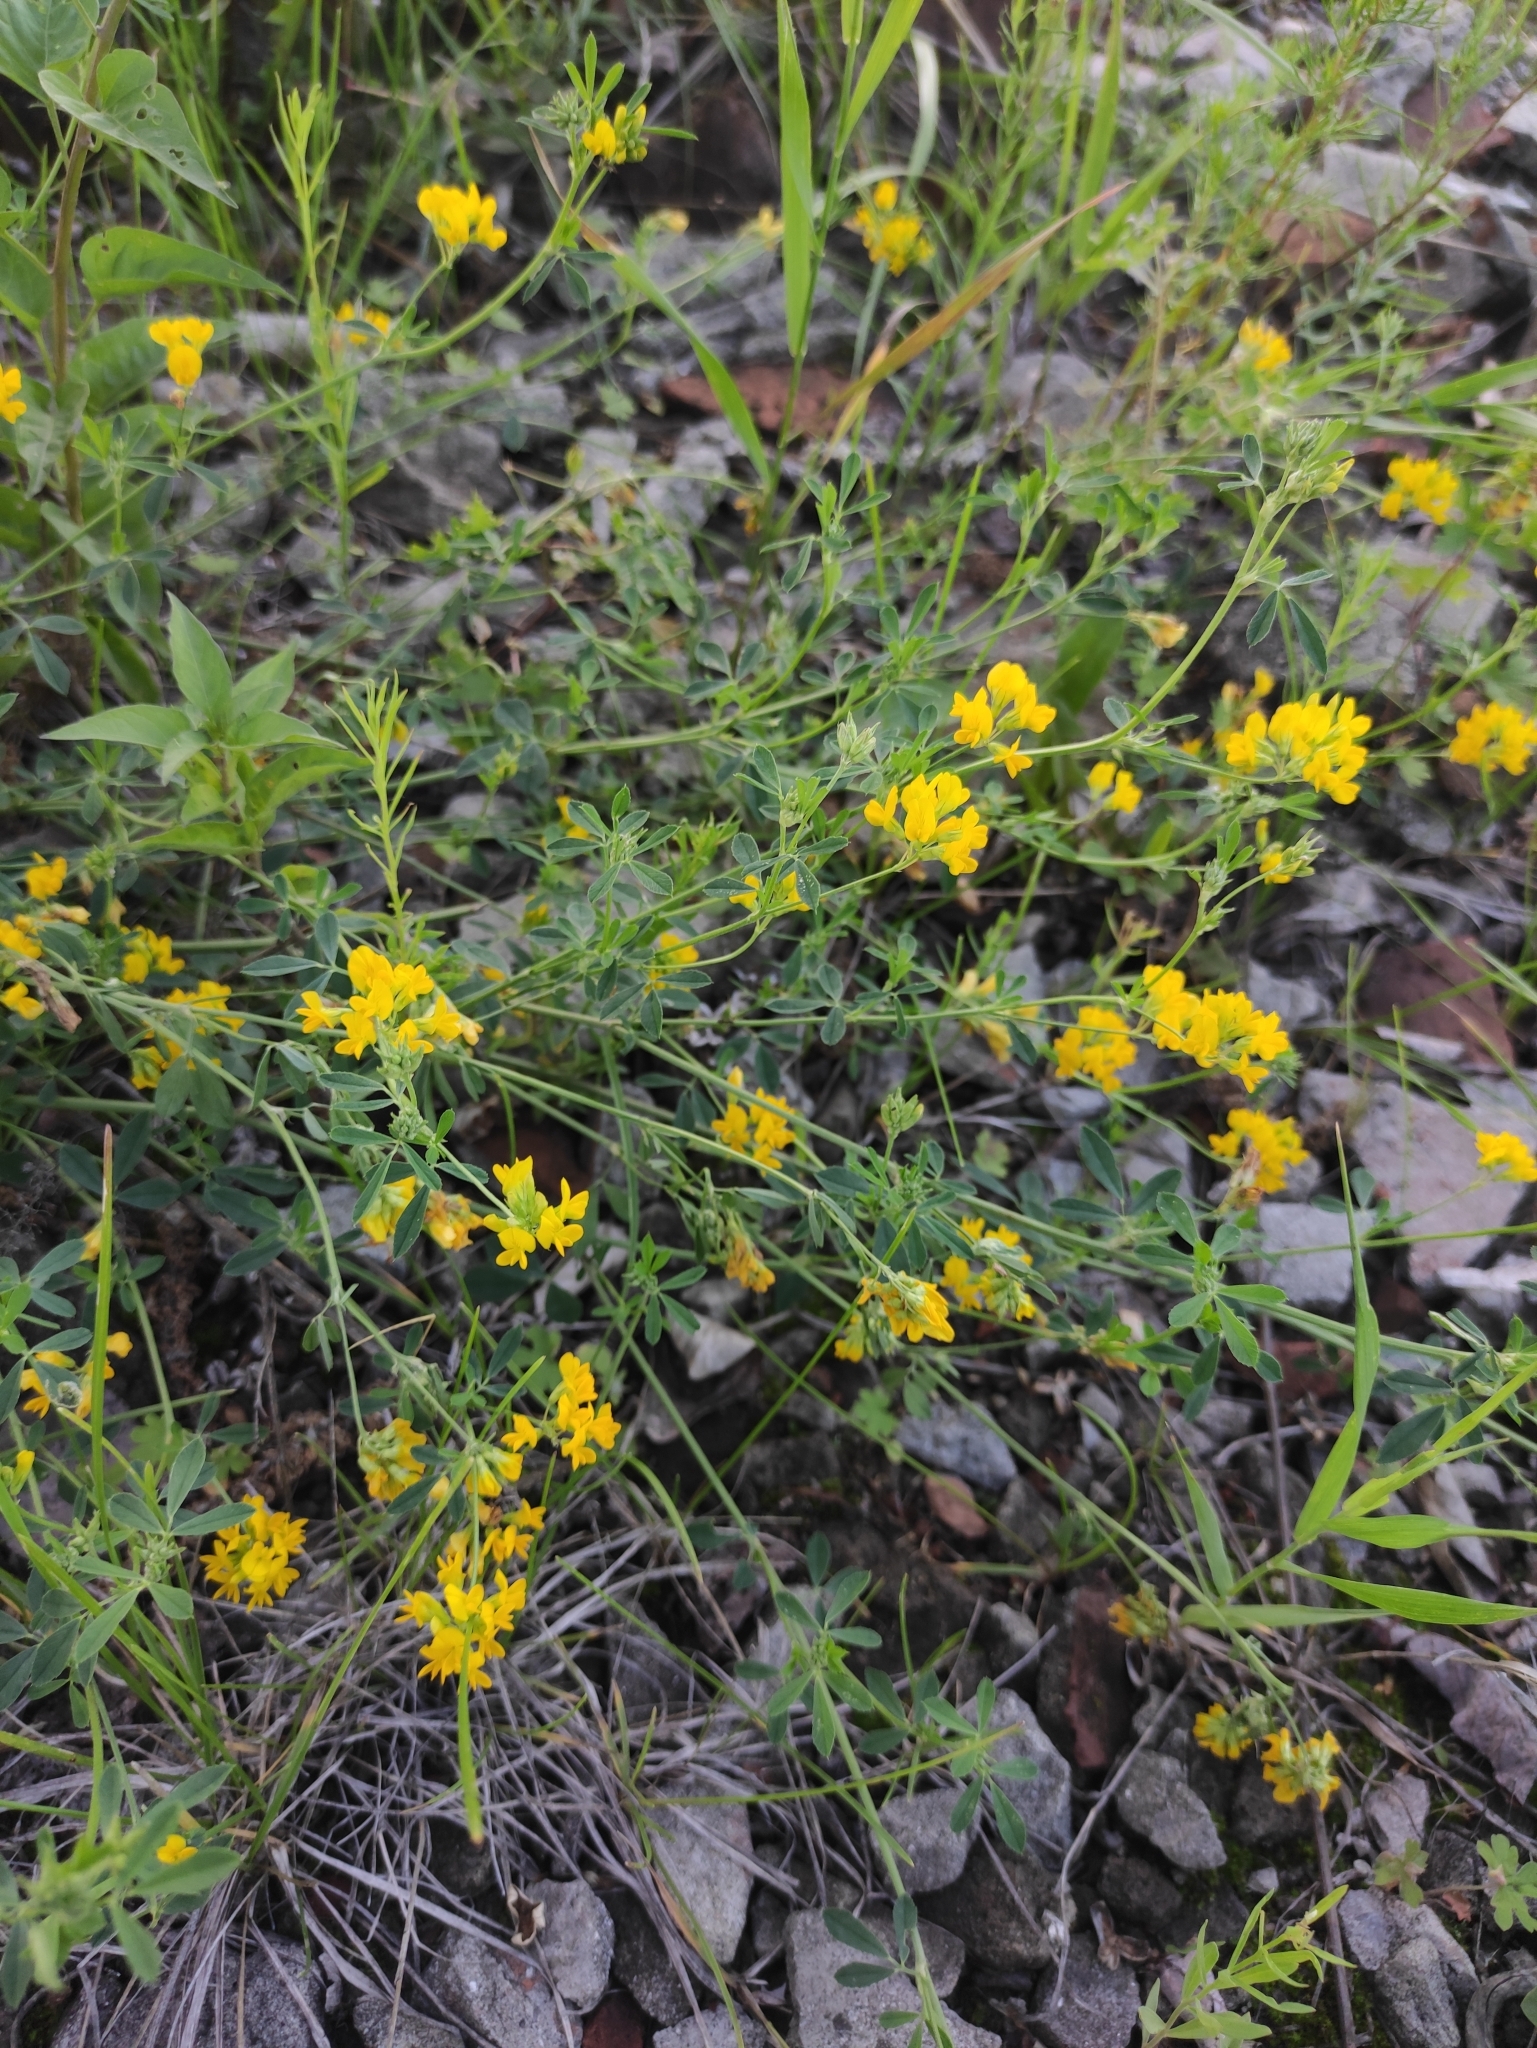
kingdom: Plantae
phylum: Tracheophyta
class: Magnoliopsida
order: Fabales
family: Fabaceae
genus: Medicago
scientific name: Medicago falcata
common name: Sickle medick
